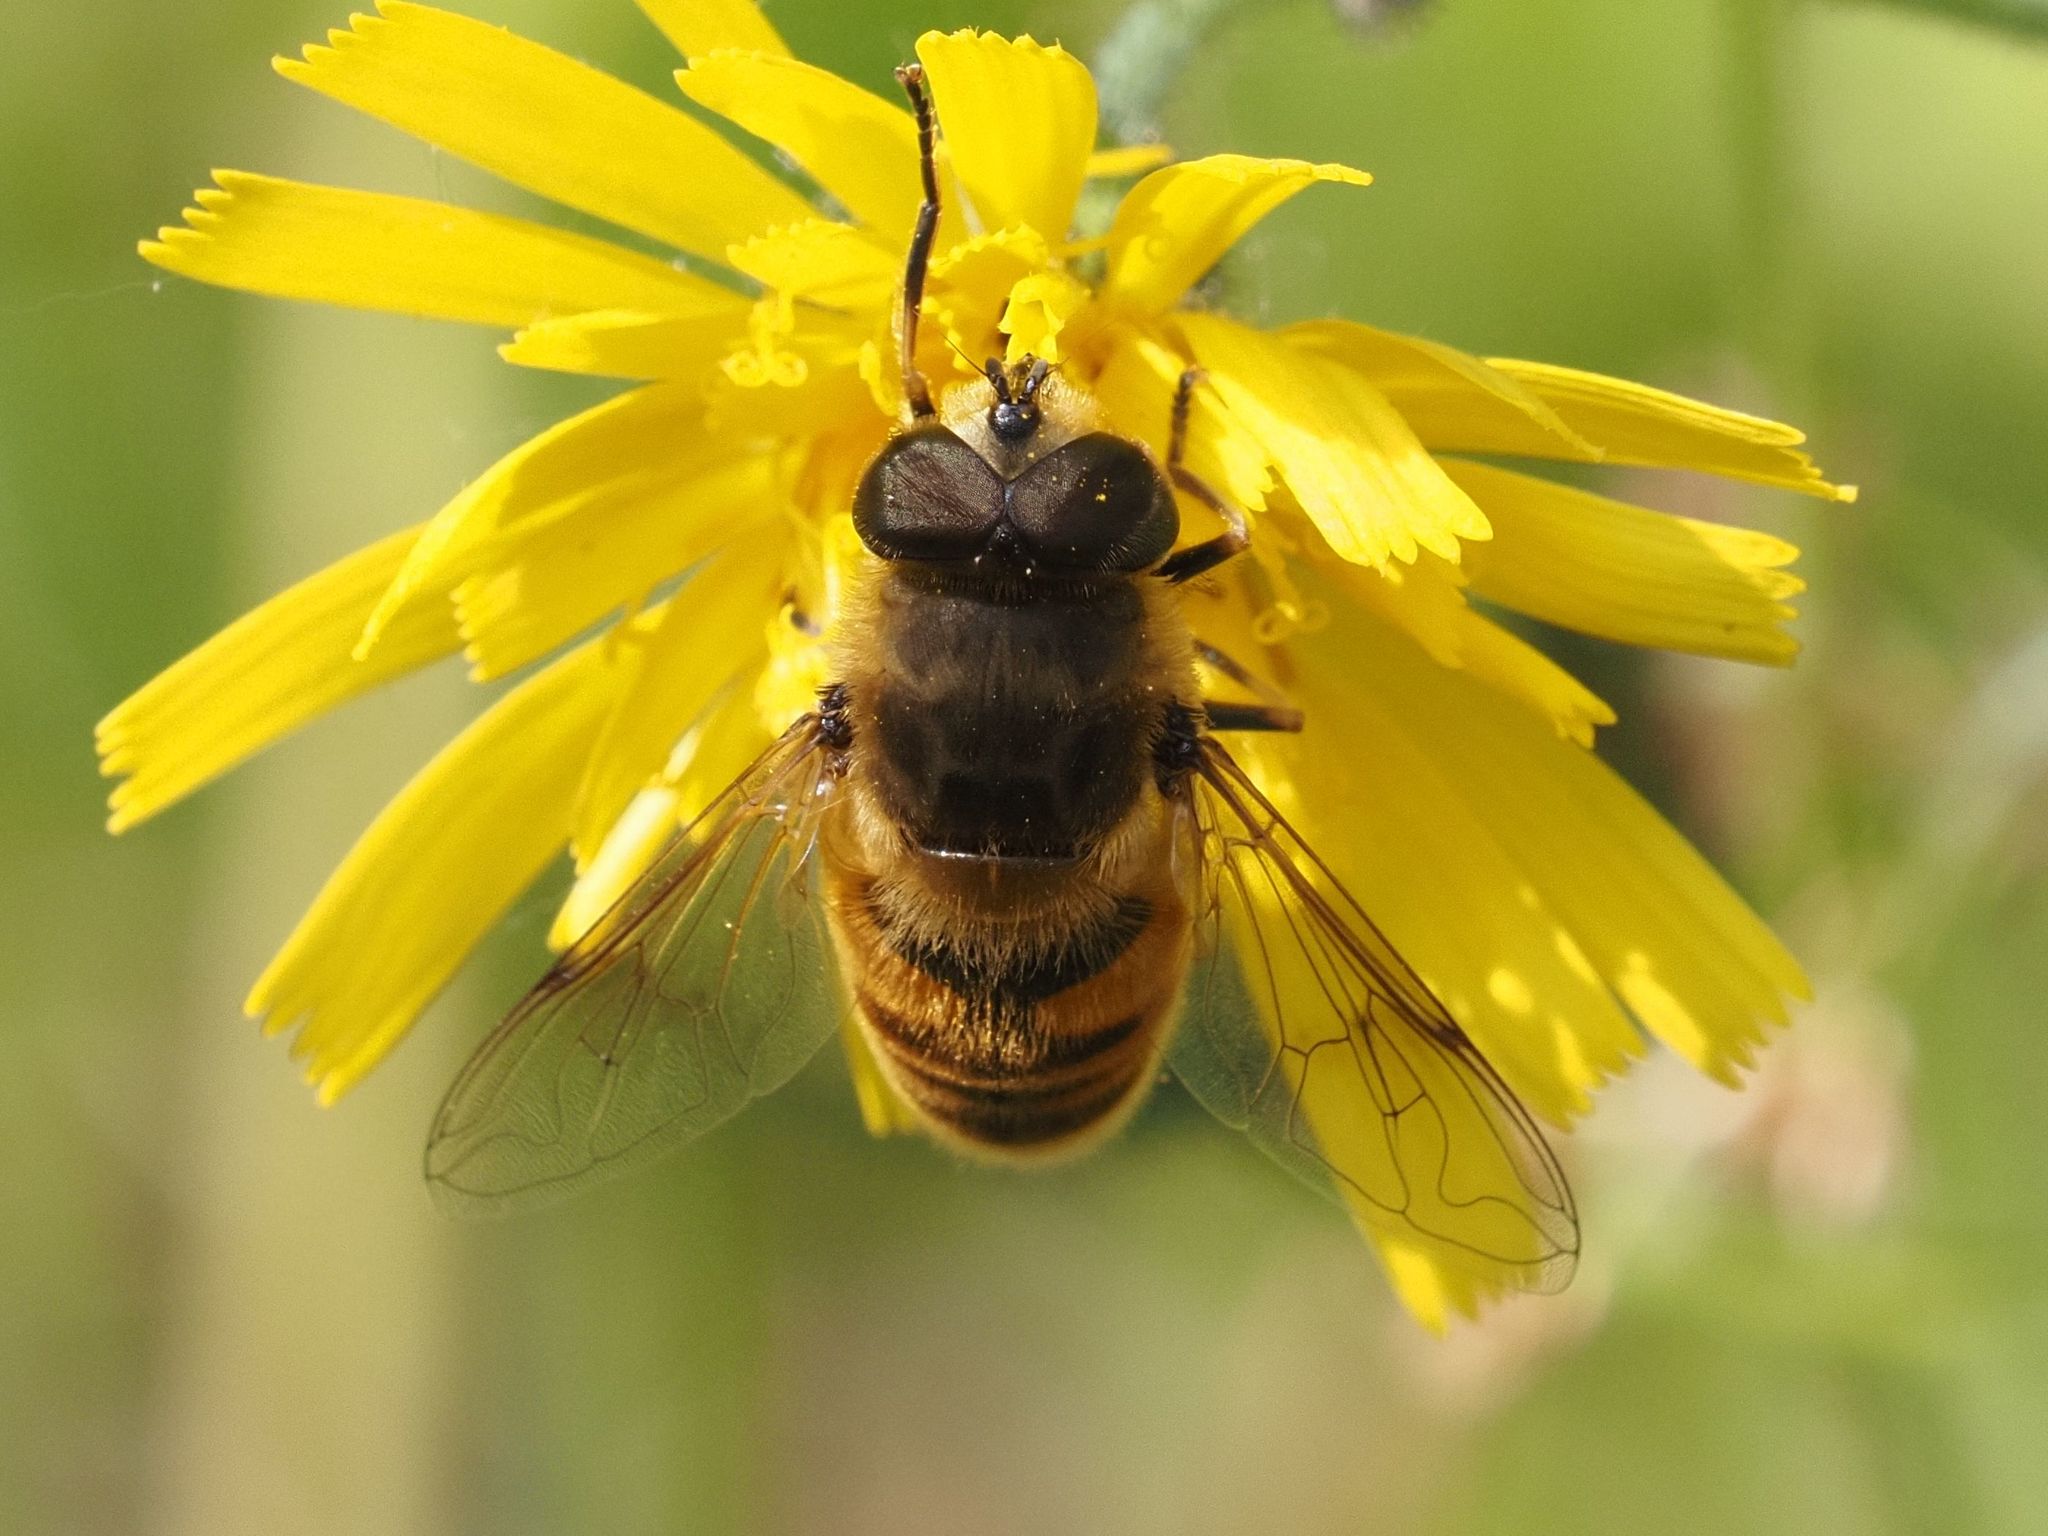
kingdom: Animalia
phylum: Arthropoda
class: Insecta
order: Diptera
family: Syrphidae
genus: Eristalis
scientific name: Eristalis tenax
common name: Drone fly
